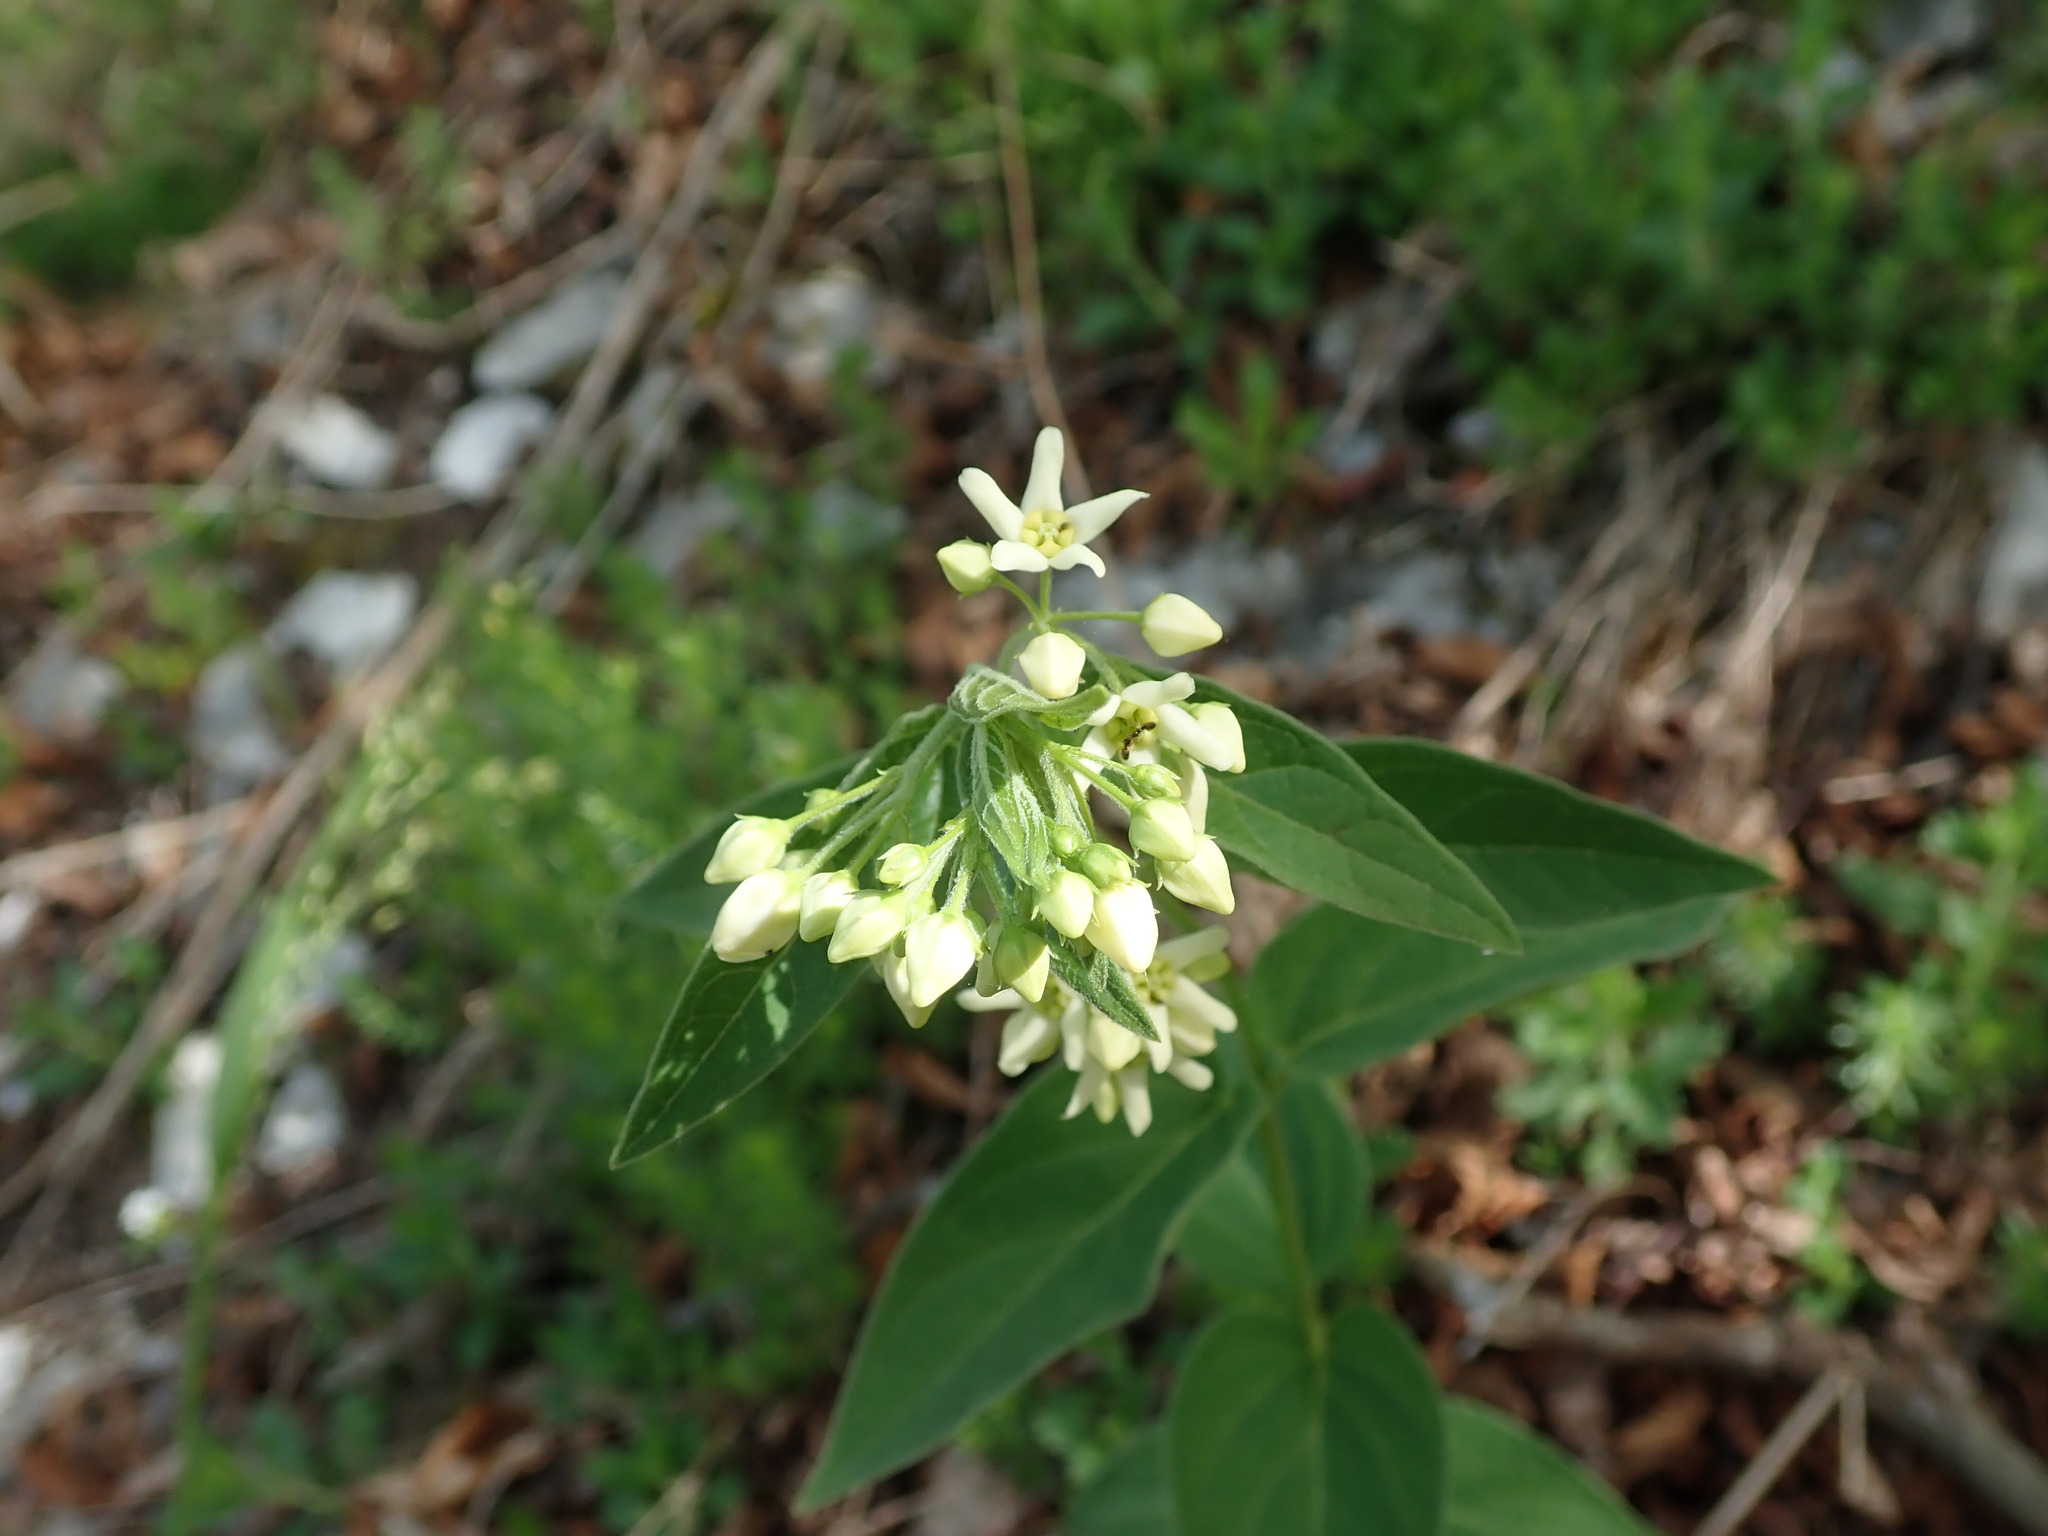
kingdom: Plantae
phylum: Tracheophyta
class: Magnoliopsida
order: Gentianales
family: Apocynaceae
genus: Vincetoxicum
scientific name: Vincetoxicum hirundinaria
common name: White swallowwort
